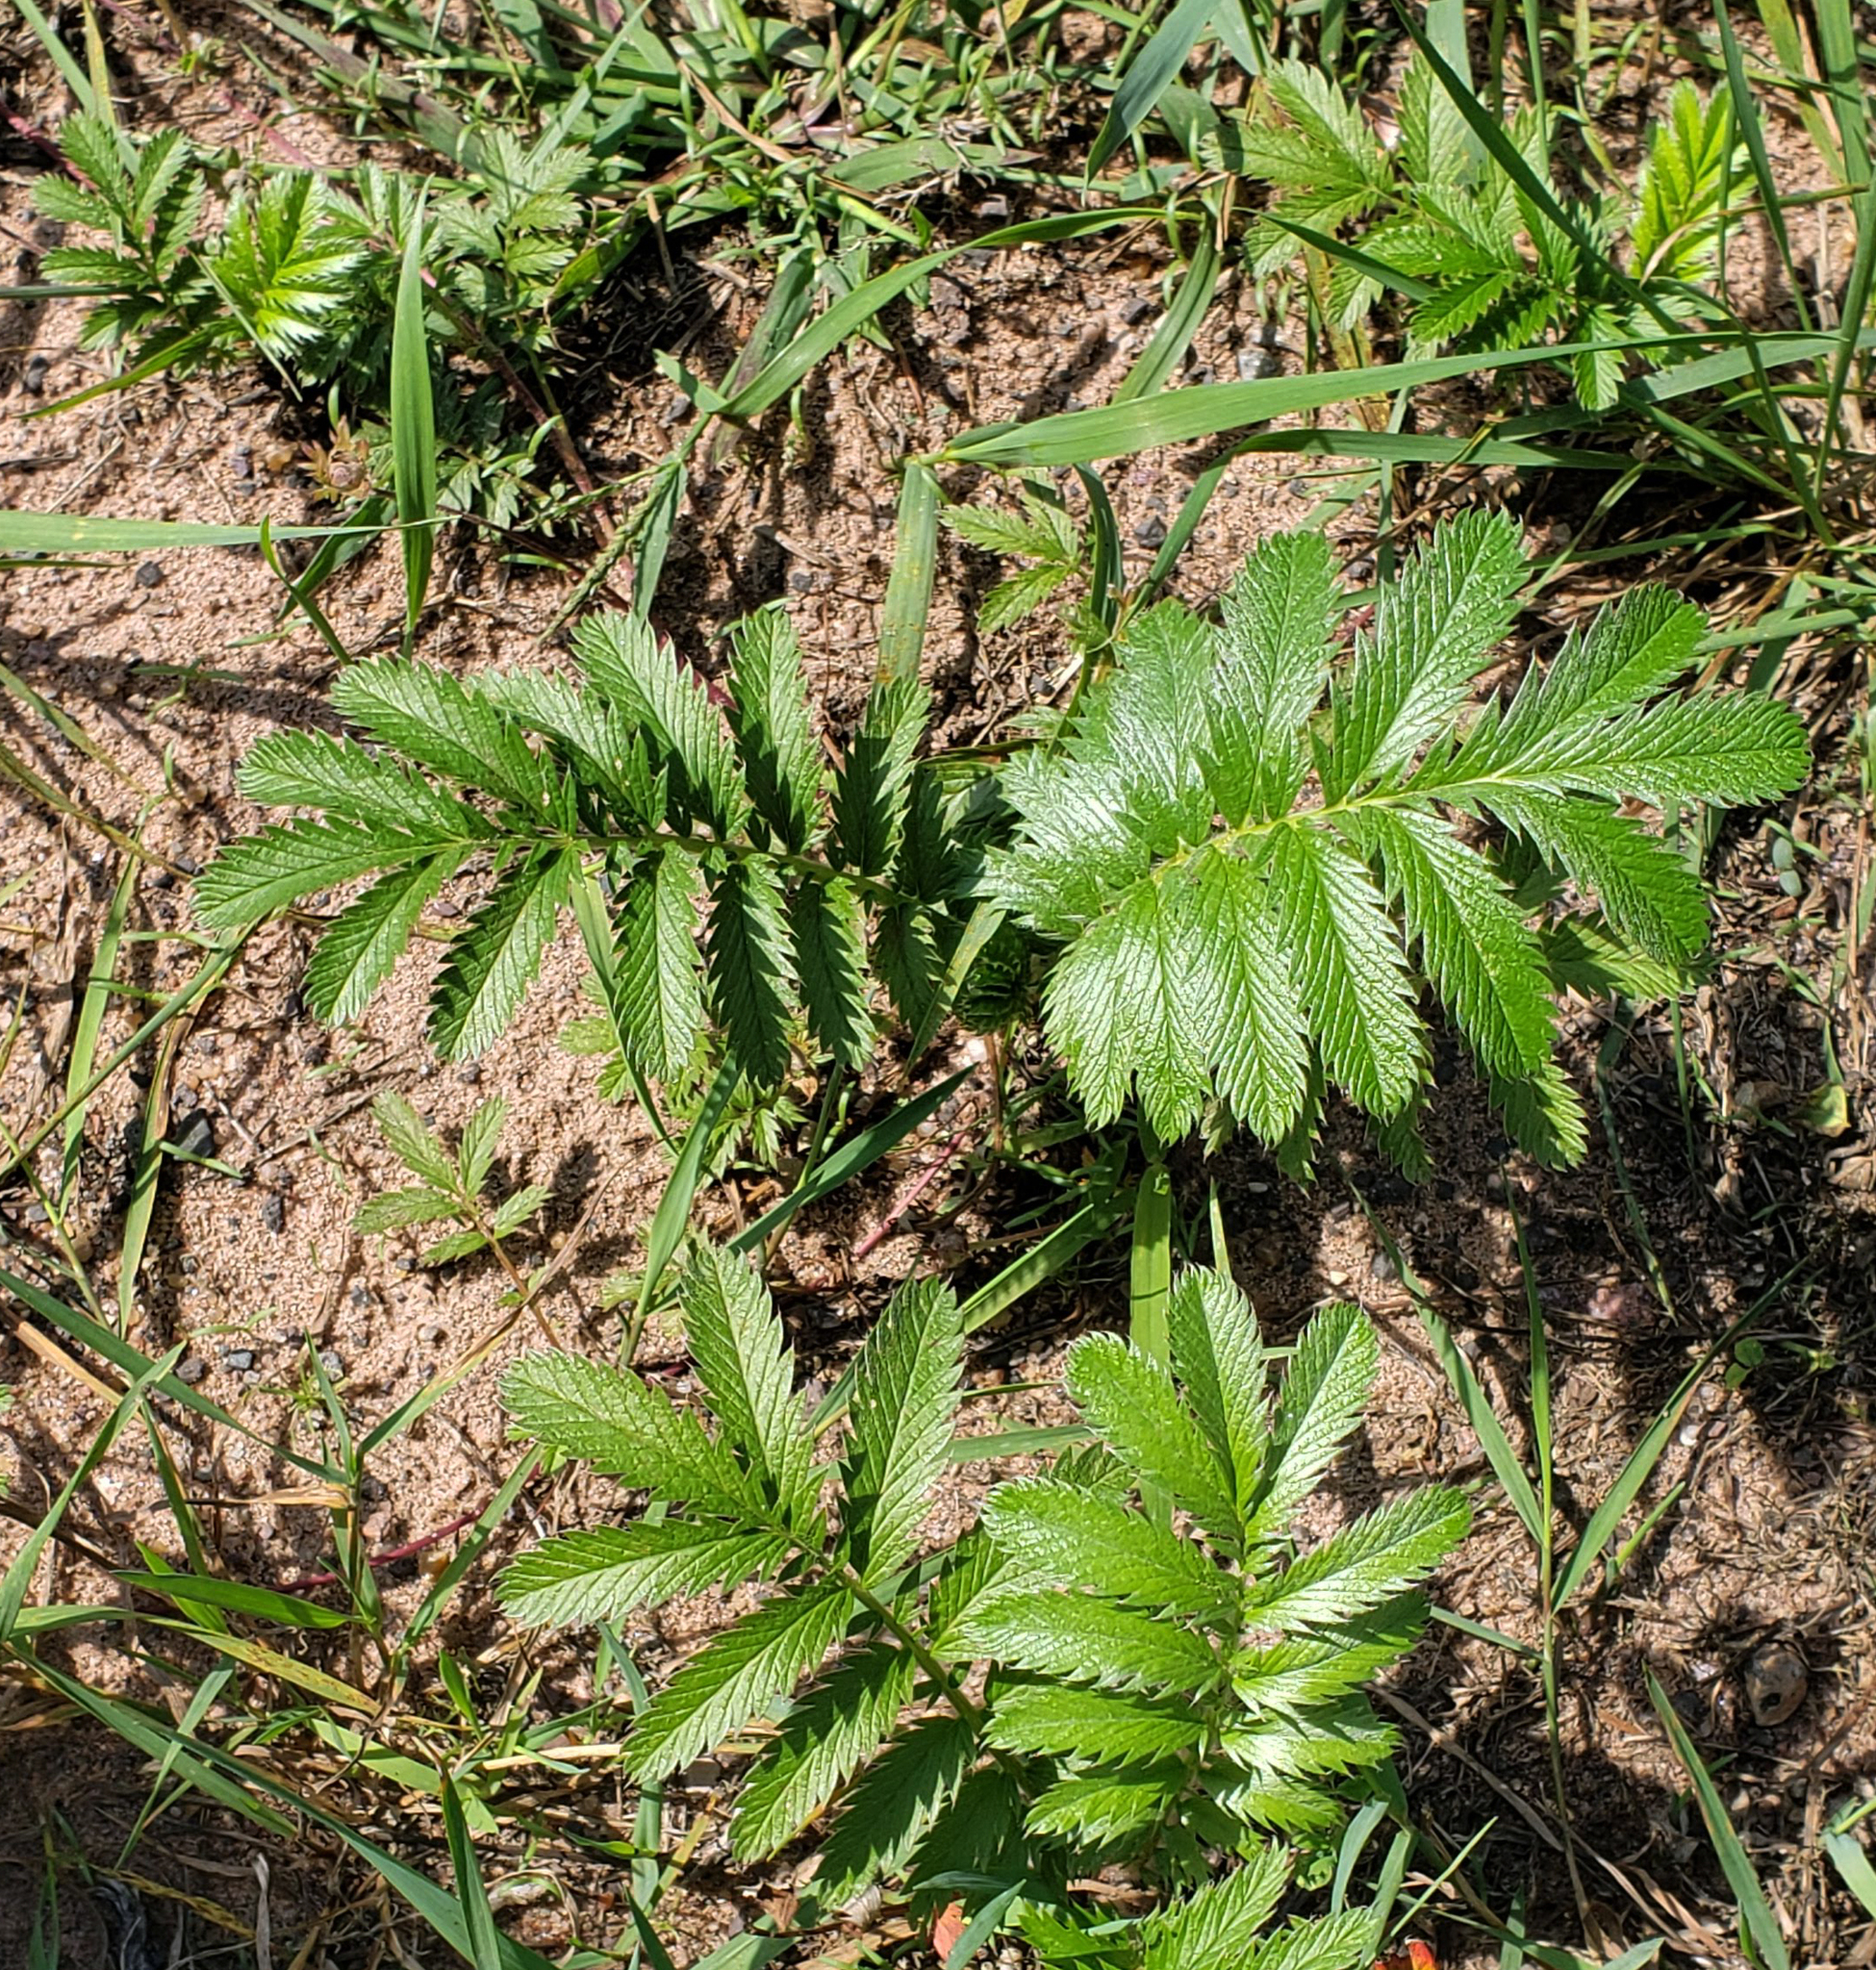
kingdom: Plantae
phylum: Tracheophyta
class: Magnoliopsida
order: Rosales
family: Rosaceae
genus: Argentina
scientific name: Argentina anserina
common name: Common silverweed
